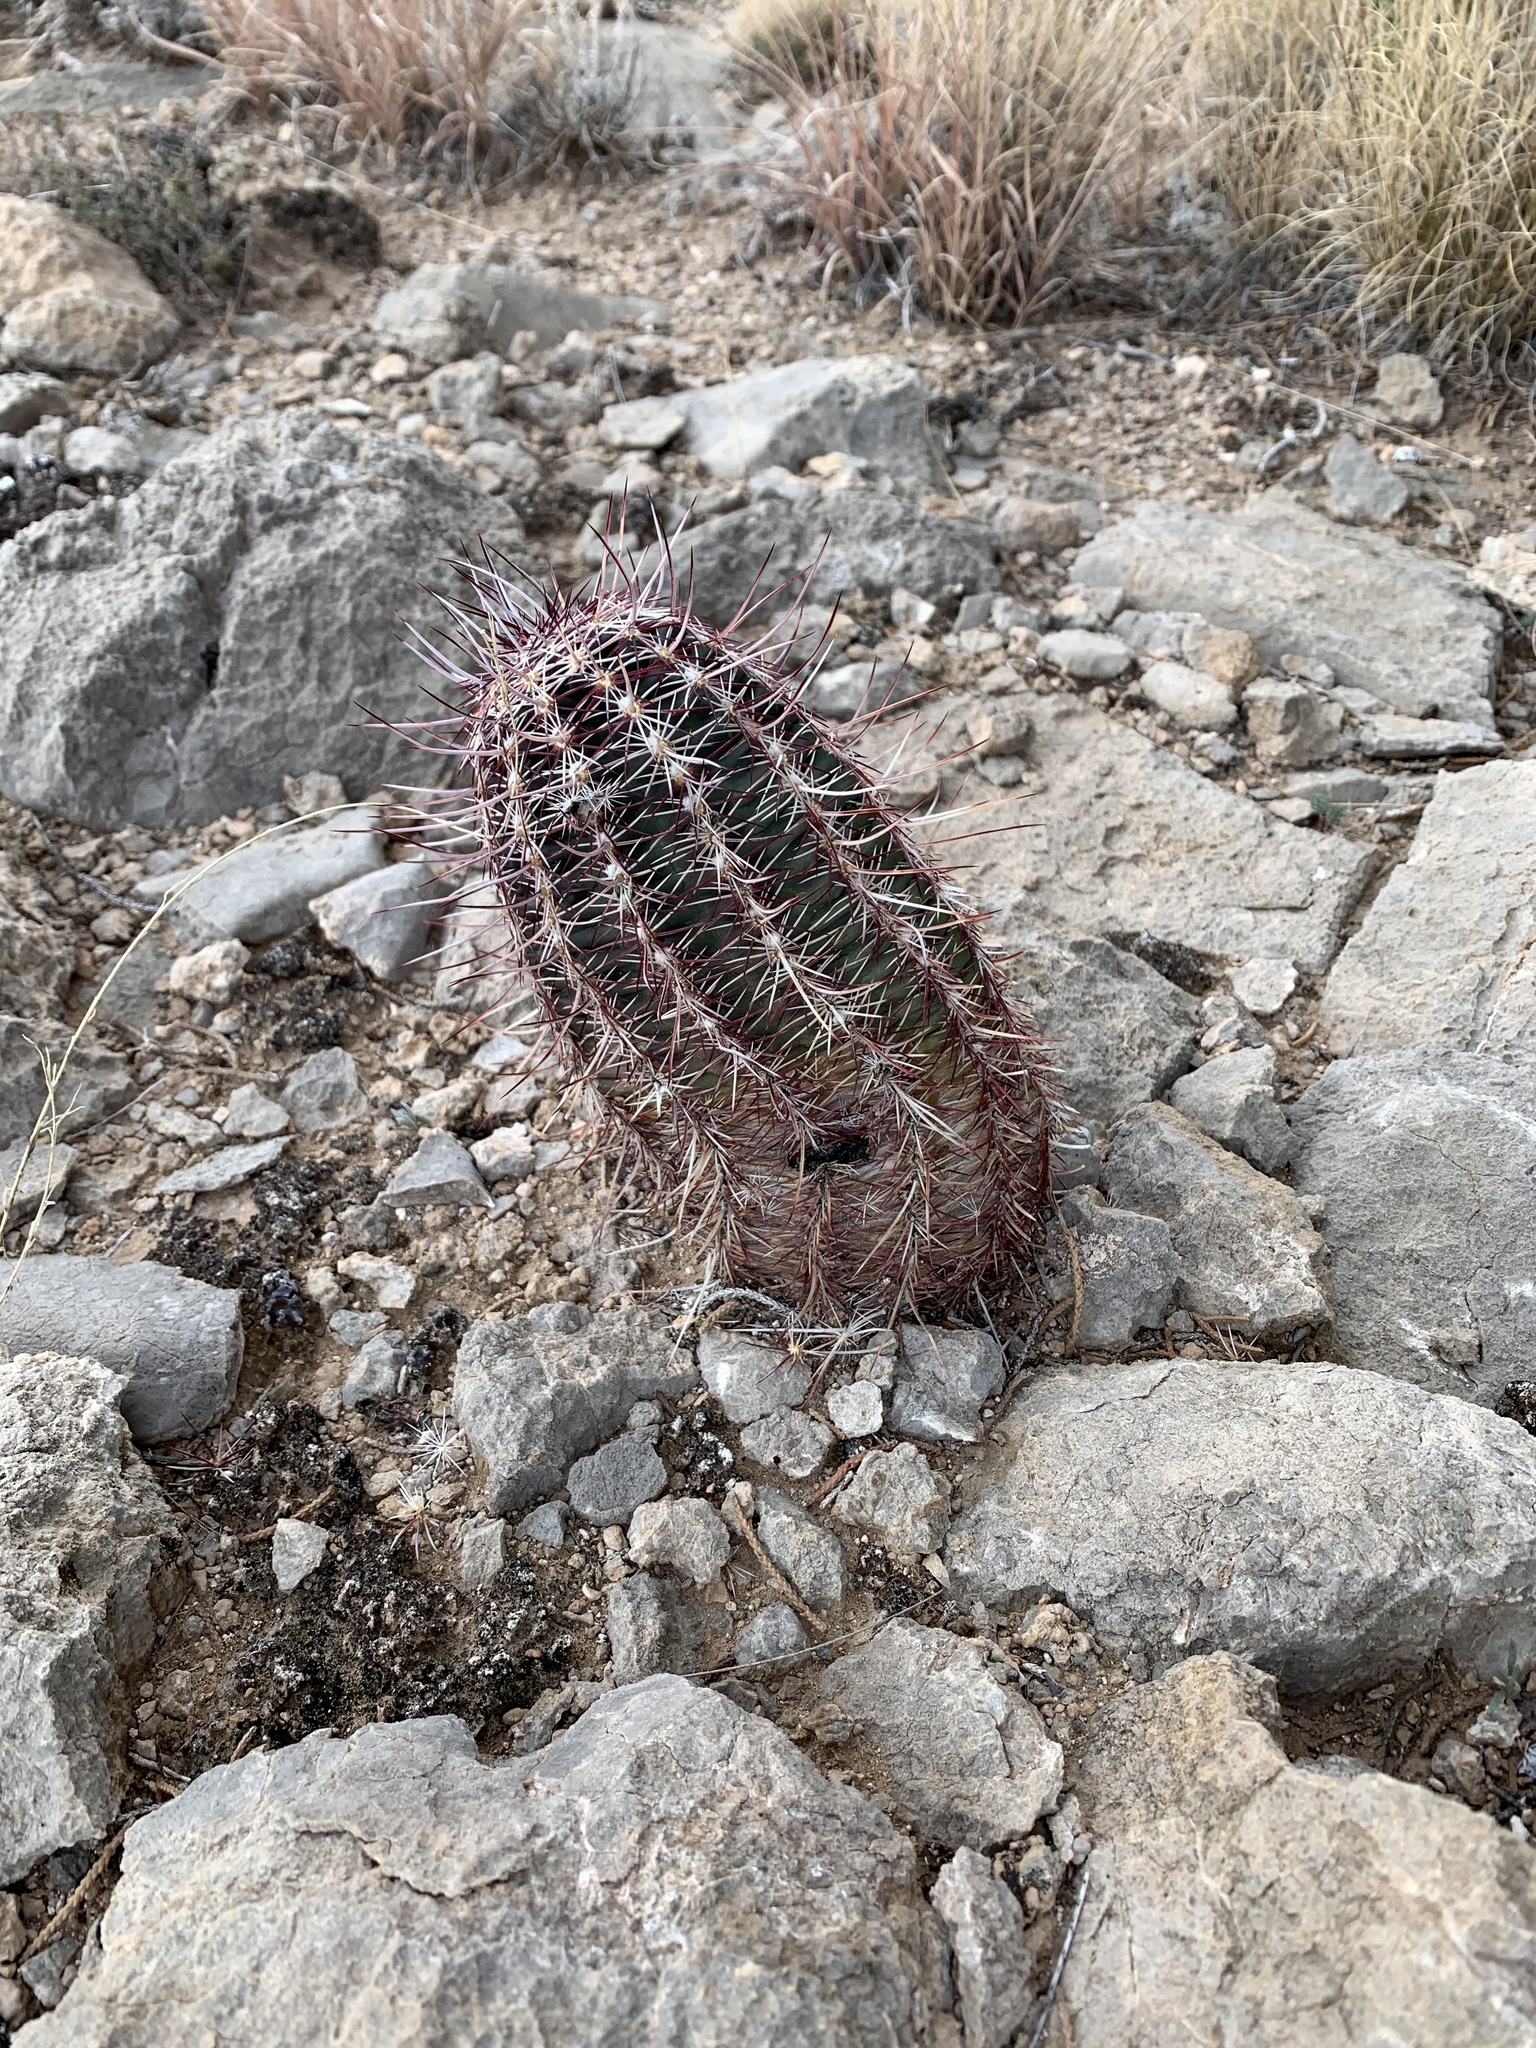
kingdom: Plantae
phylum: Tracheophyta
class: Magnoliopsida
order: Caryophyllales
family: Cactaceae
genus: Echinocereus
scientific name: Echinocereus viridiflorus
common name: Nylon hedgehog cactus
